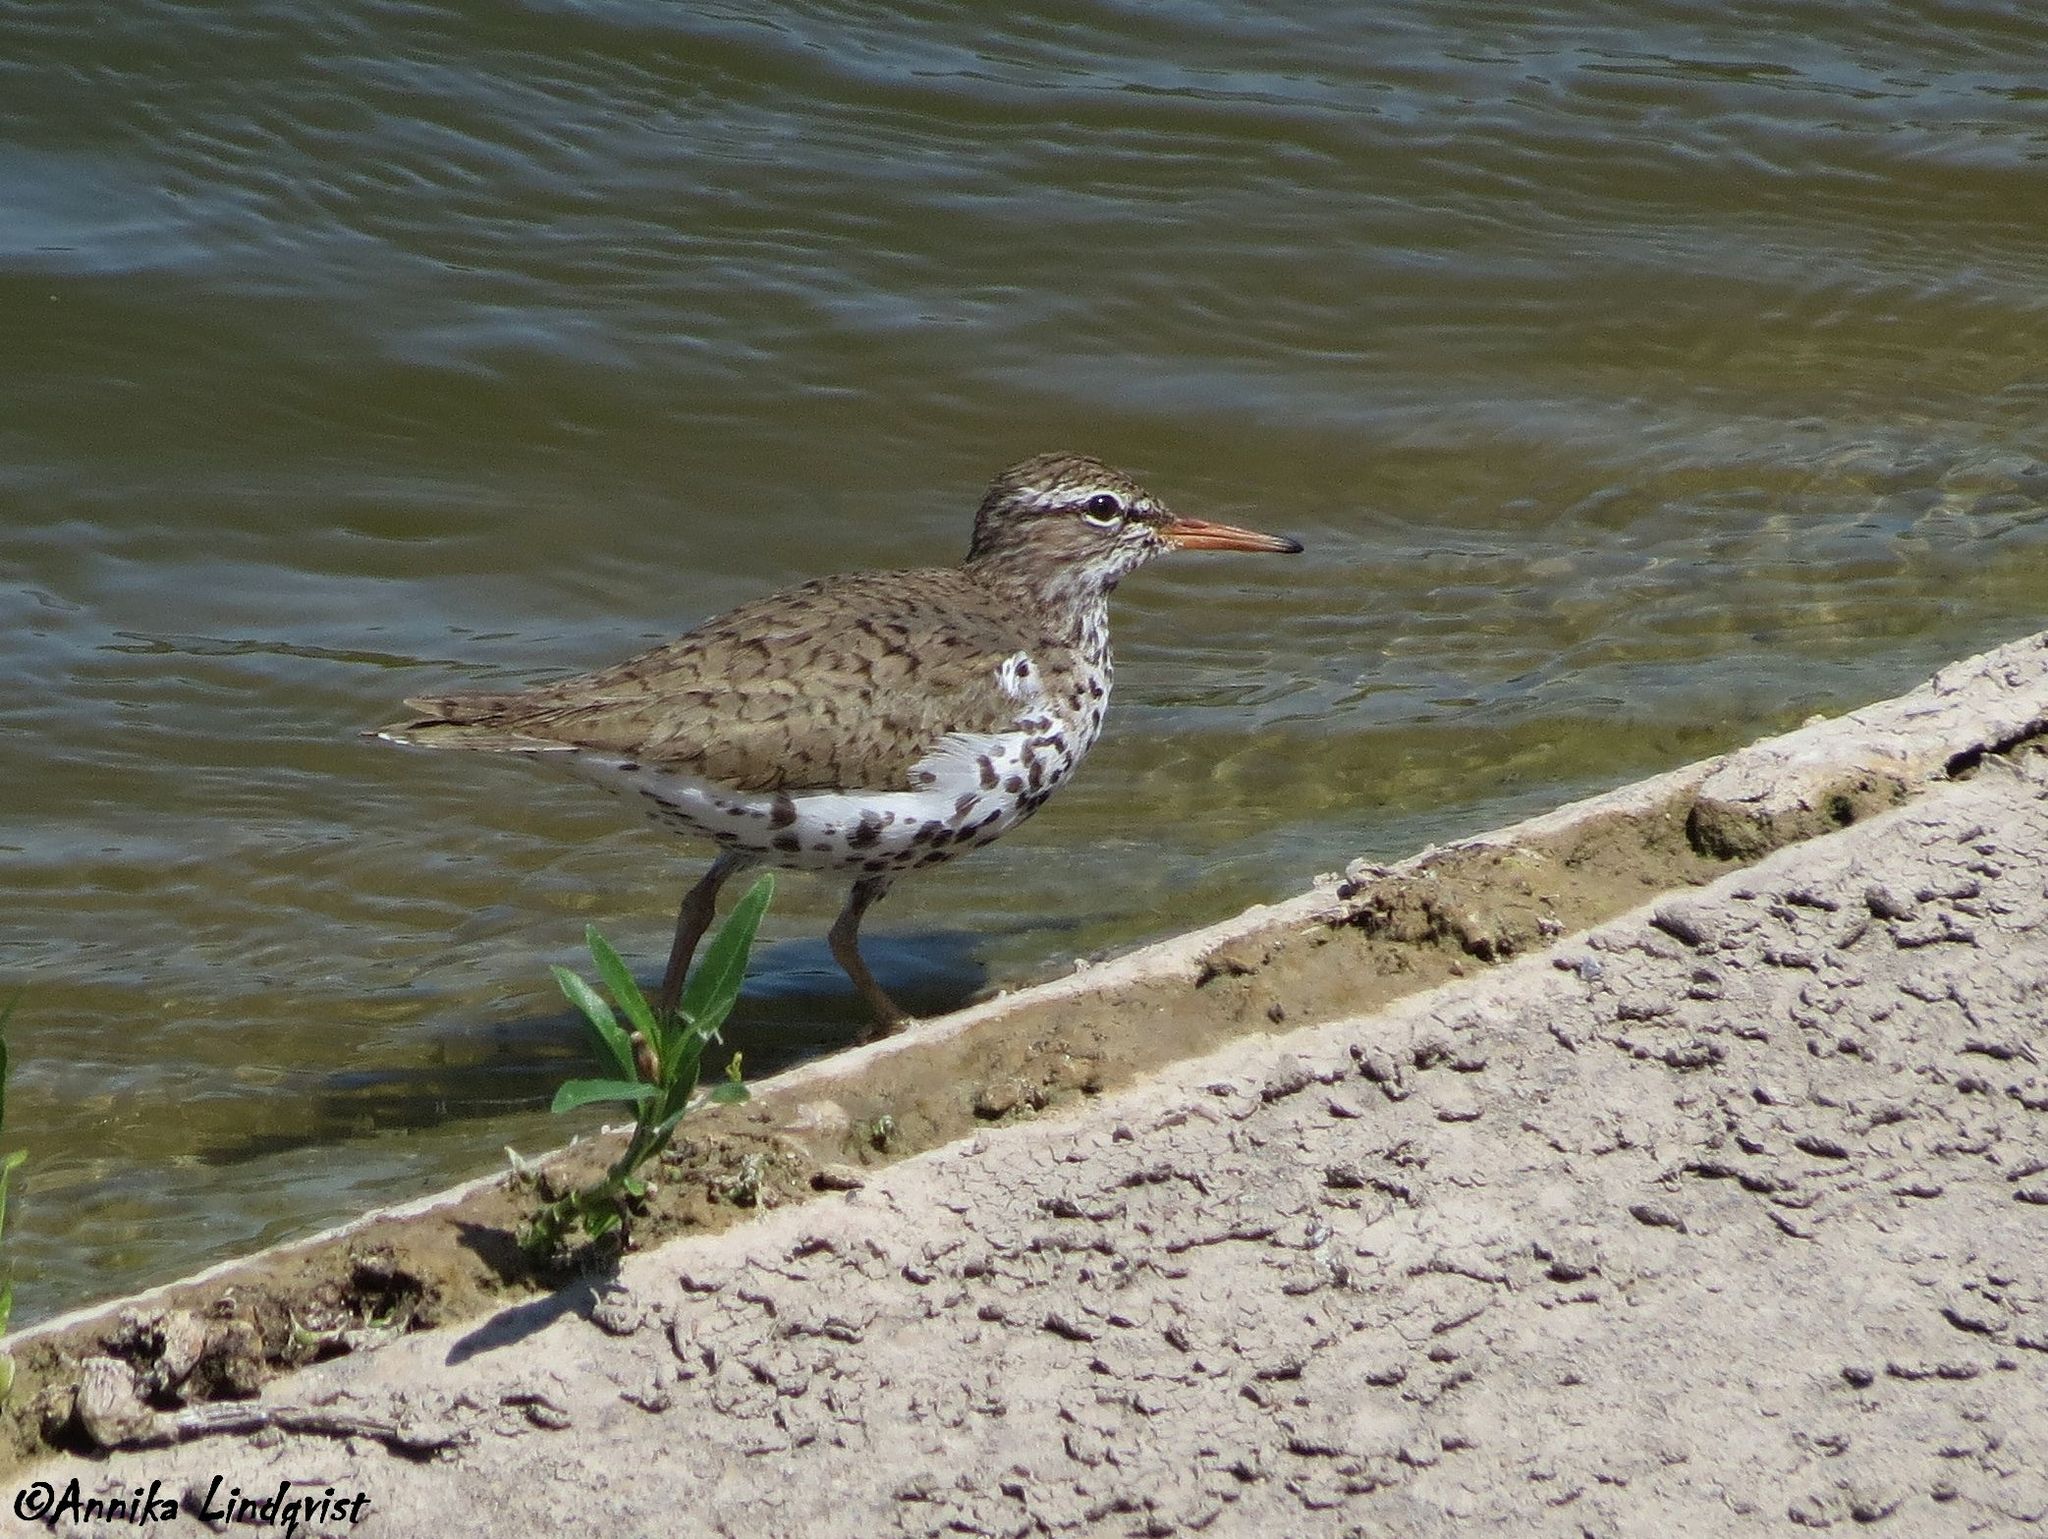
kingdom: Animalia
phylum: Chordata
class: Aves
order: Charadriiformes
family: Scolopacidae
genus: Actitis
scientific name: Actitis macularius
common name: Spotted sandpiper
